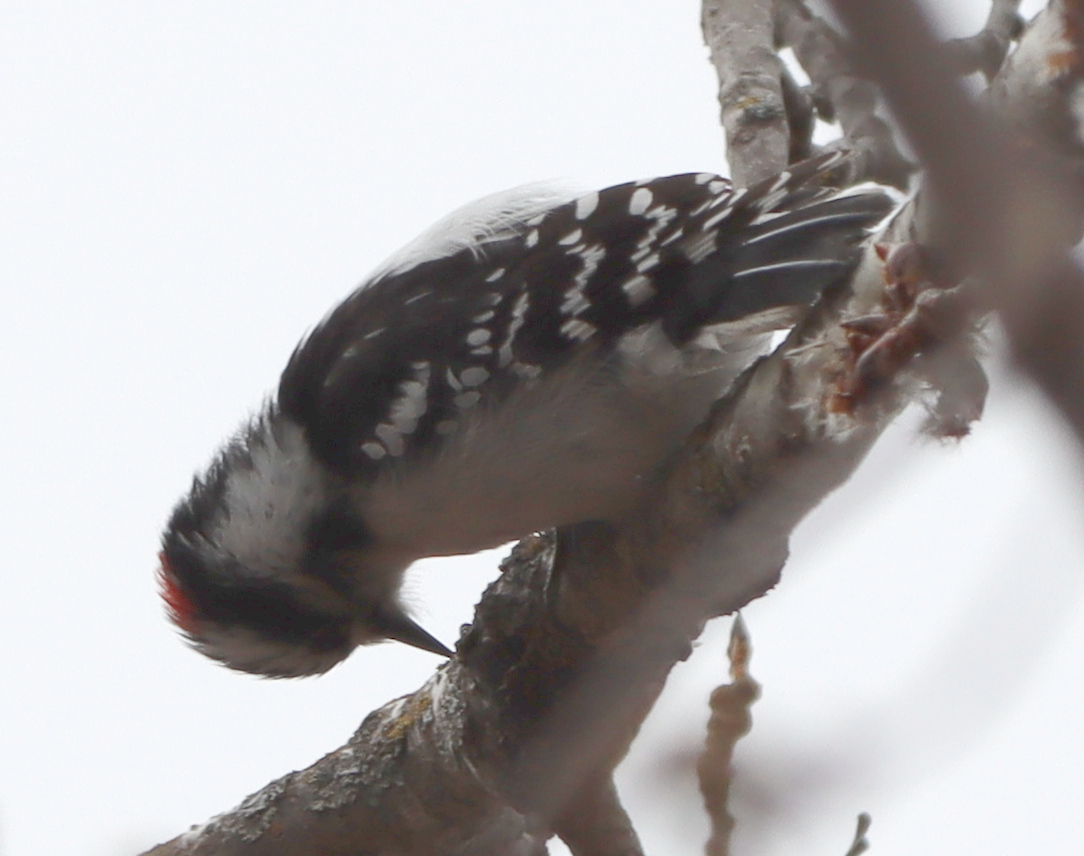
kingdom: Animalia
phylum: Chordata
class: Aves
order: Piciformes
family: Picidae
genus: Dryobates
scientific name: Dryobates pubescens
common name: Downy woodpecker
